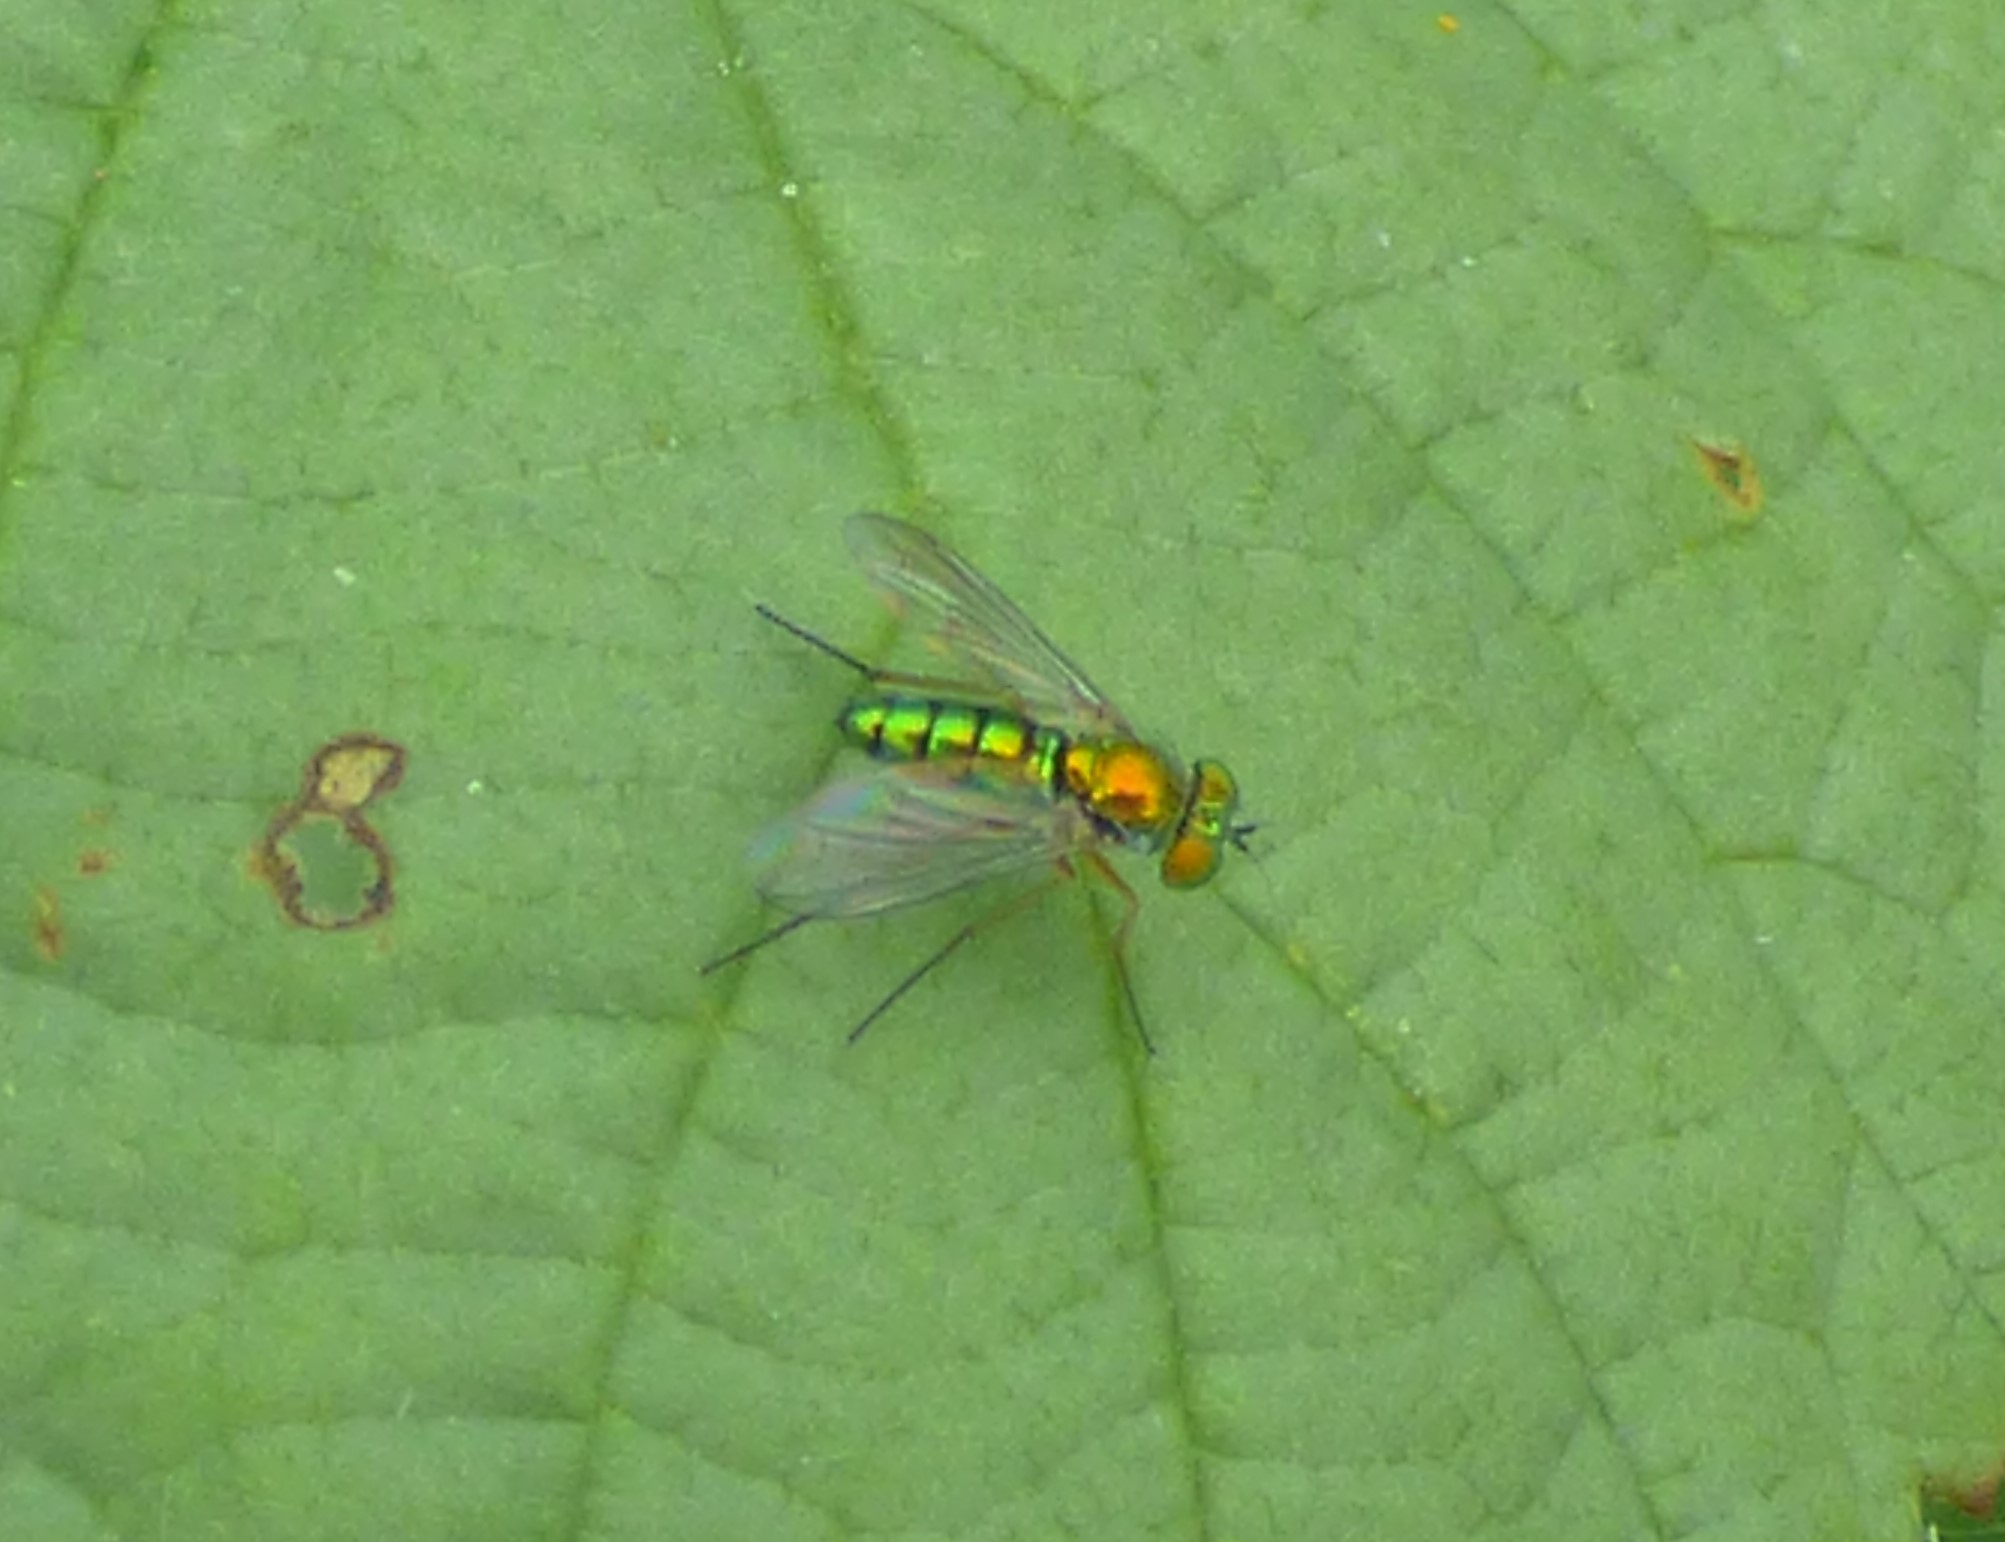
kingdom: Animalia
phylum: Arthropoda
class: Insecta
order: Diptera
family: Dolichopodidae
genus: Condylostylus
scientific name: Condylostylus
